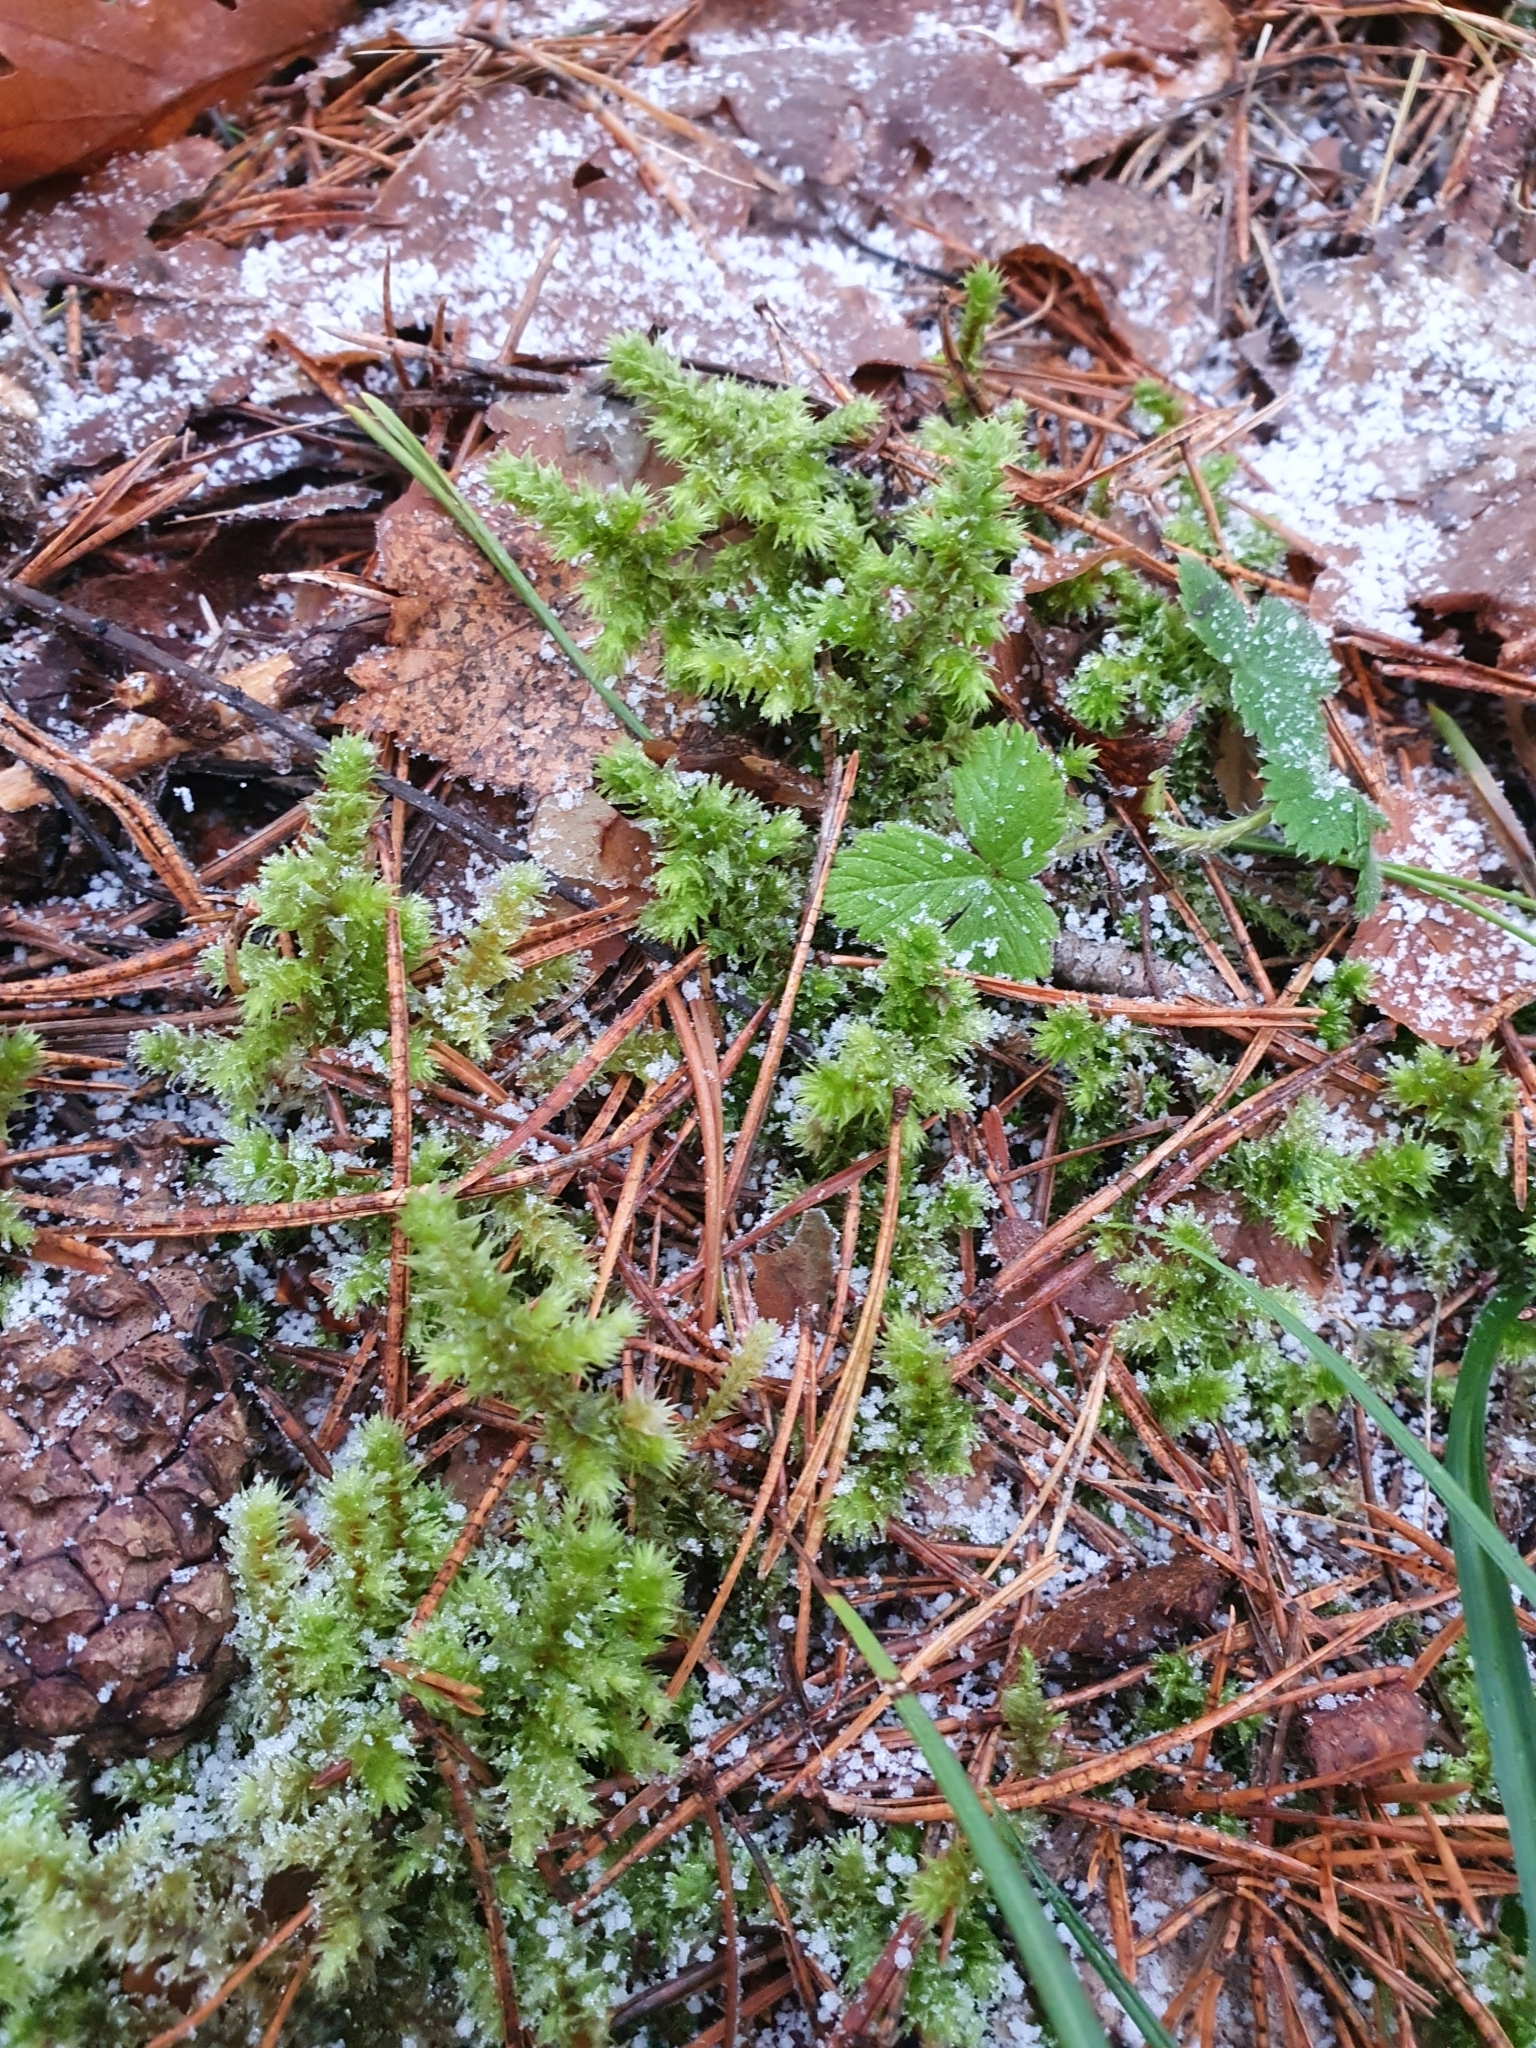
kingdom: Plantae
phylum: Bryophyta
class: Bryopsida
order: Hypnales
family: Hylocomiaceae
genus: Hylocomiadelphus
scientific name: Hylocomiadelphus triquetrus
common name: Rough goose neck moss
